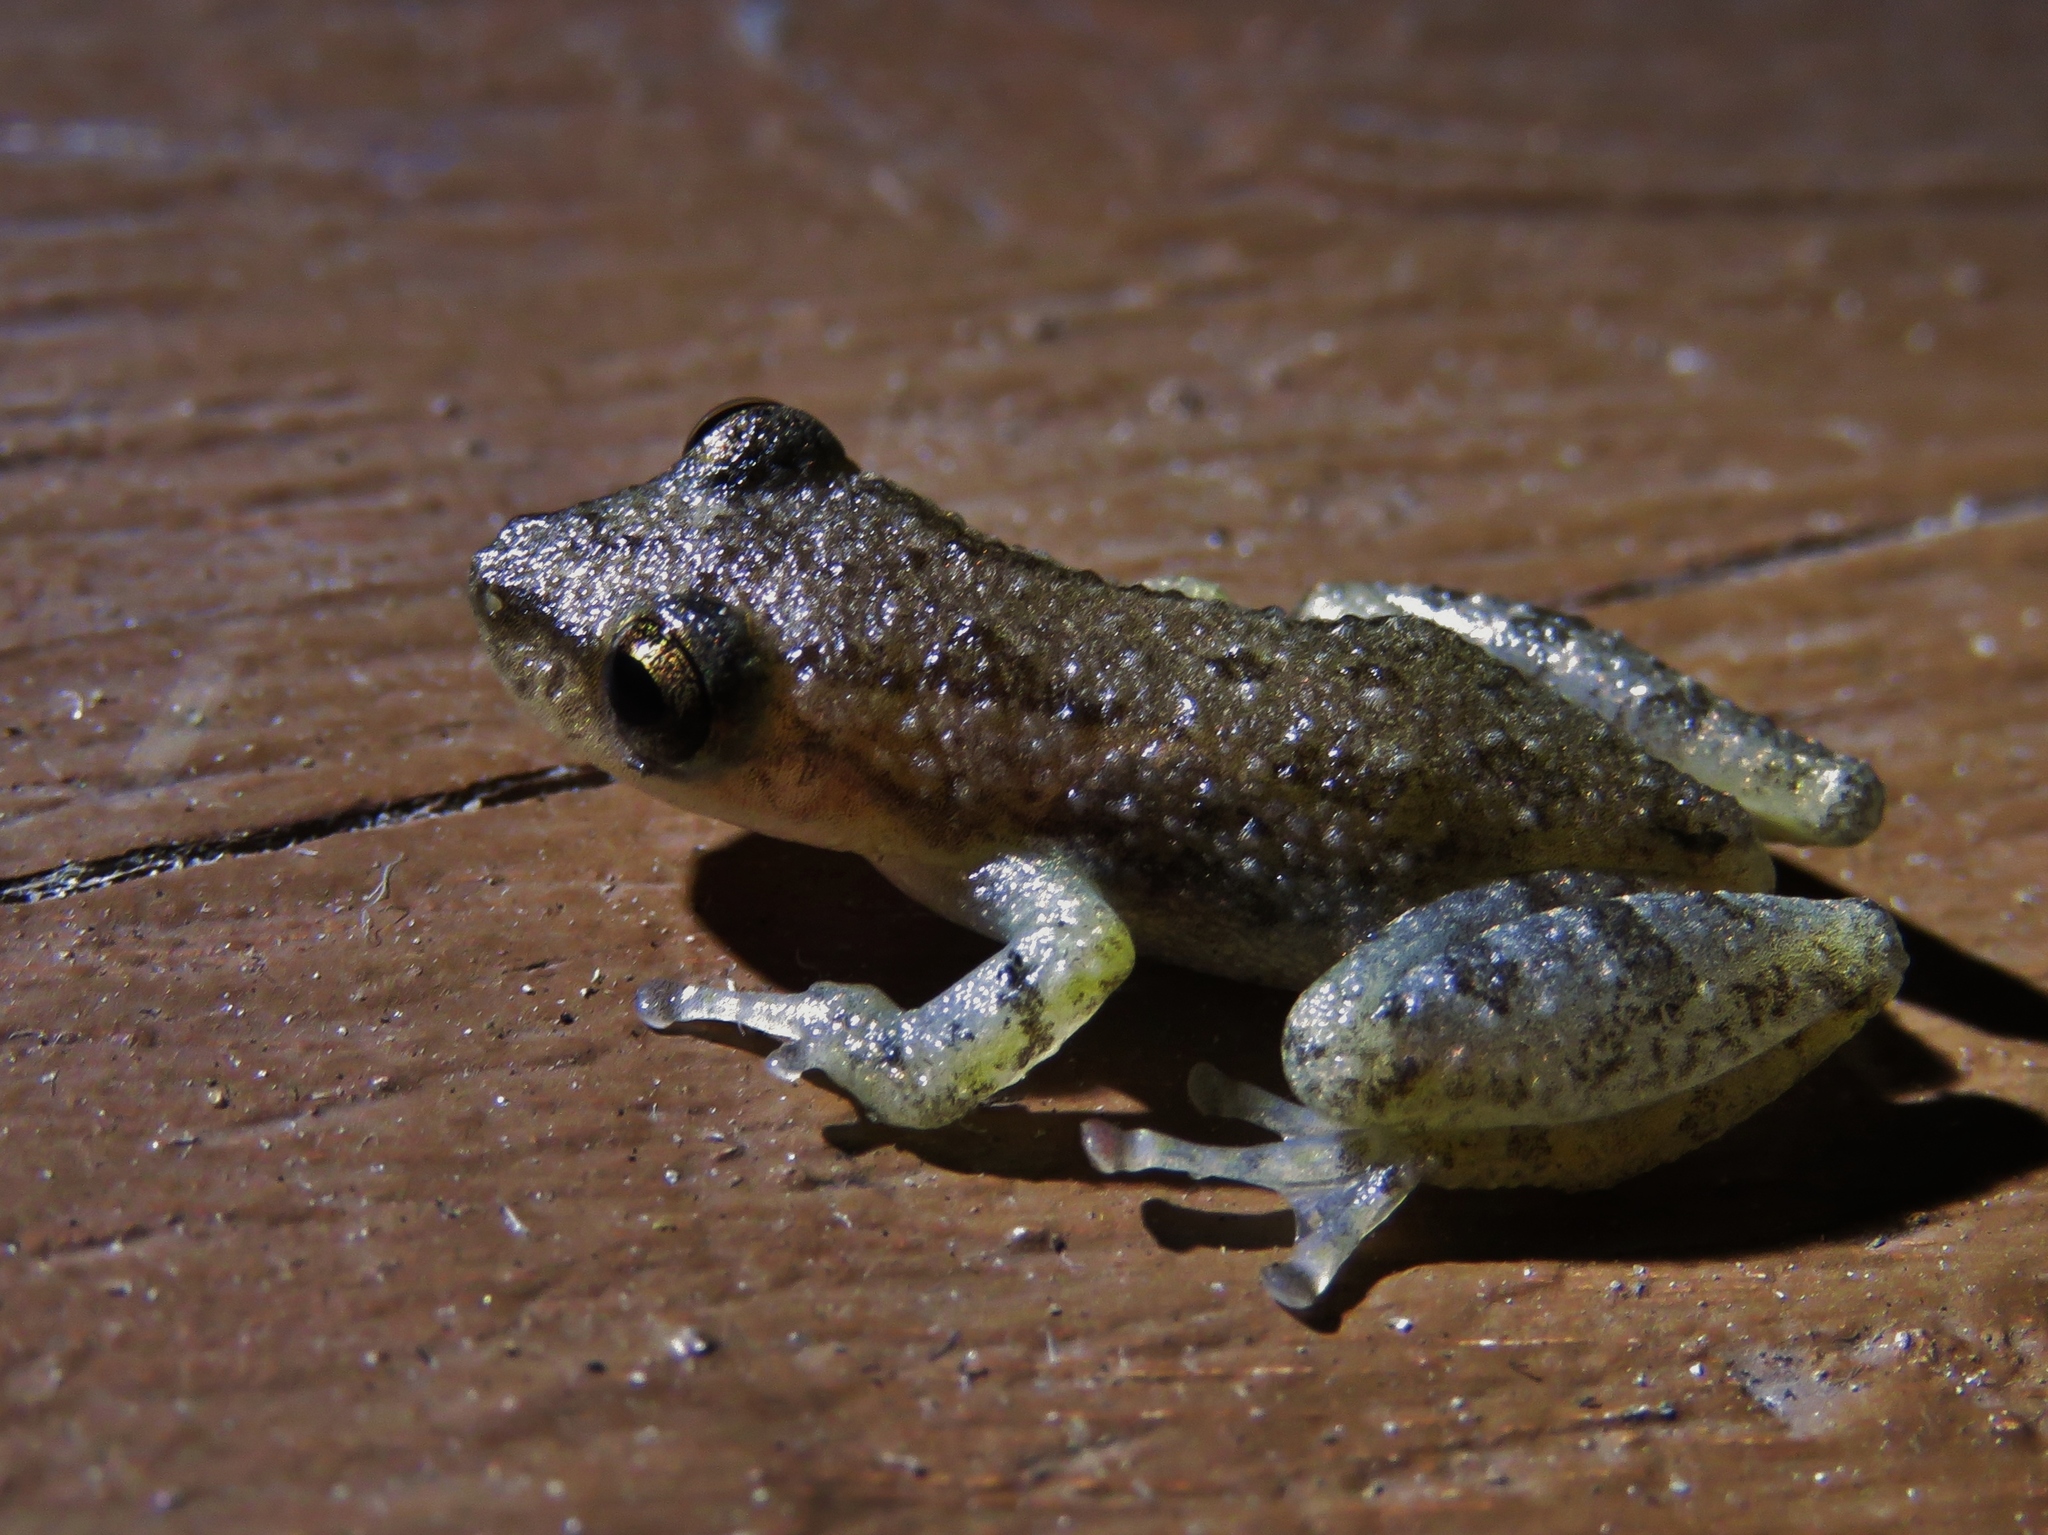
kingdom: Animalia
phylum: Chordata
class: Amphibia
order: Anura
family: Hylidae
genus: Scinax
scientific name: Scinax staufferi
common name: Stauffer's long-nosed treefrog
